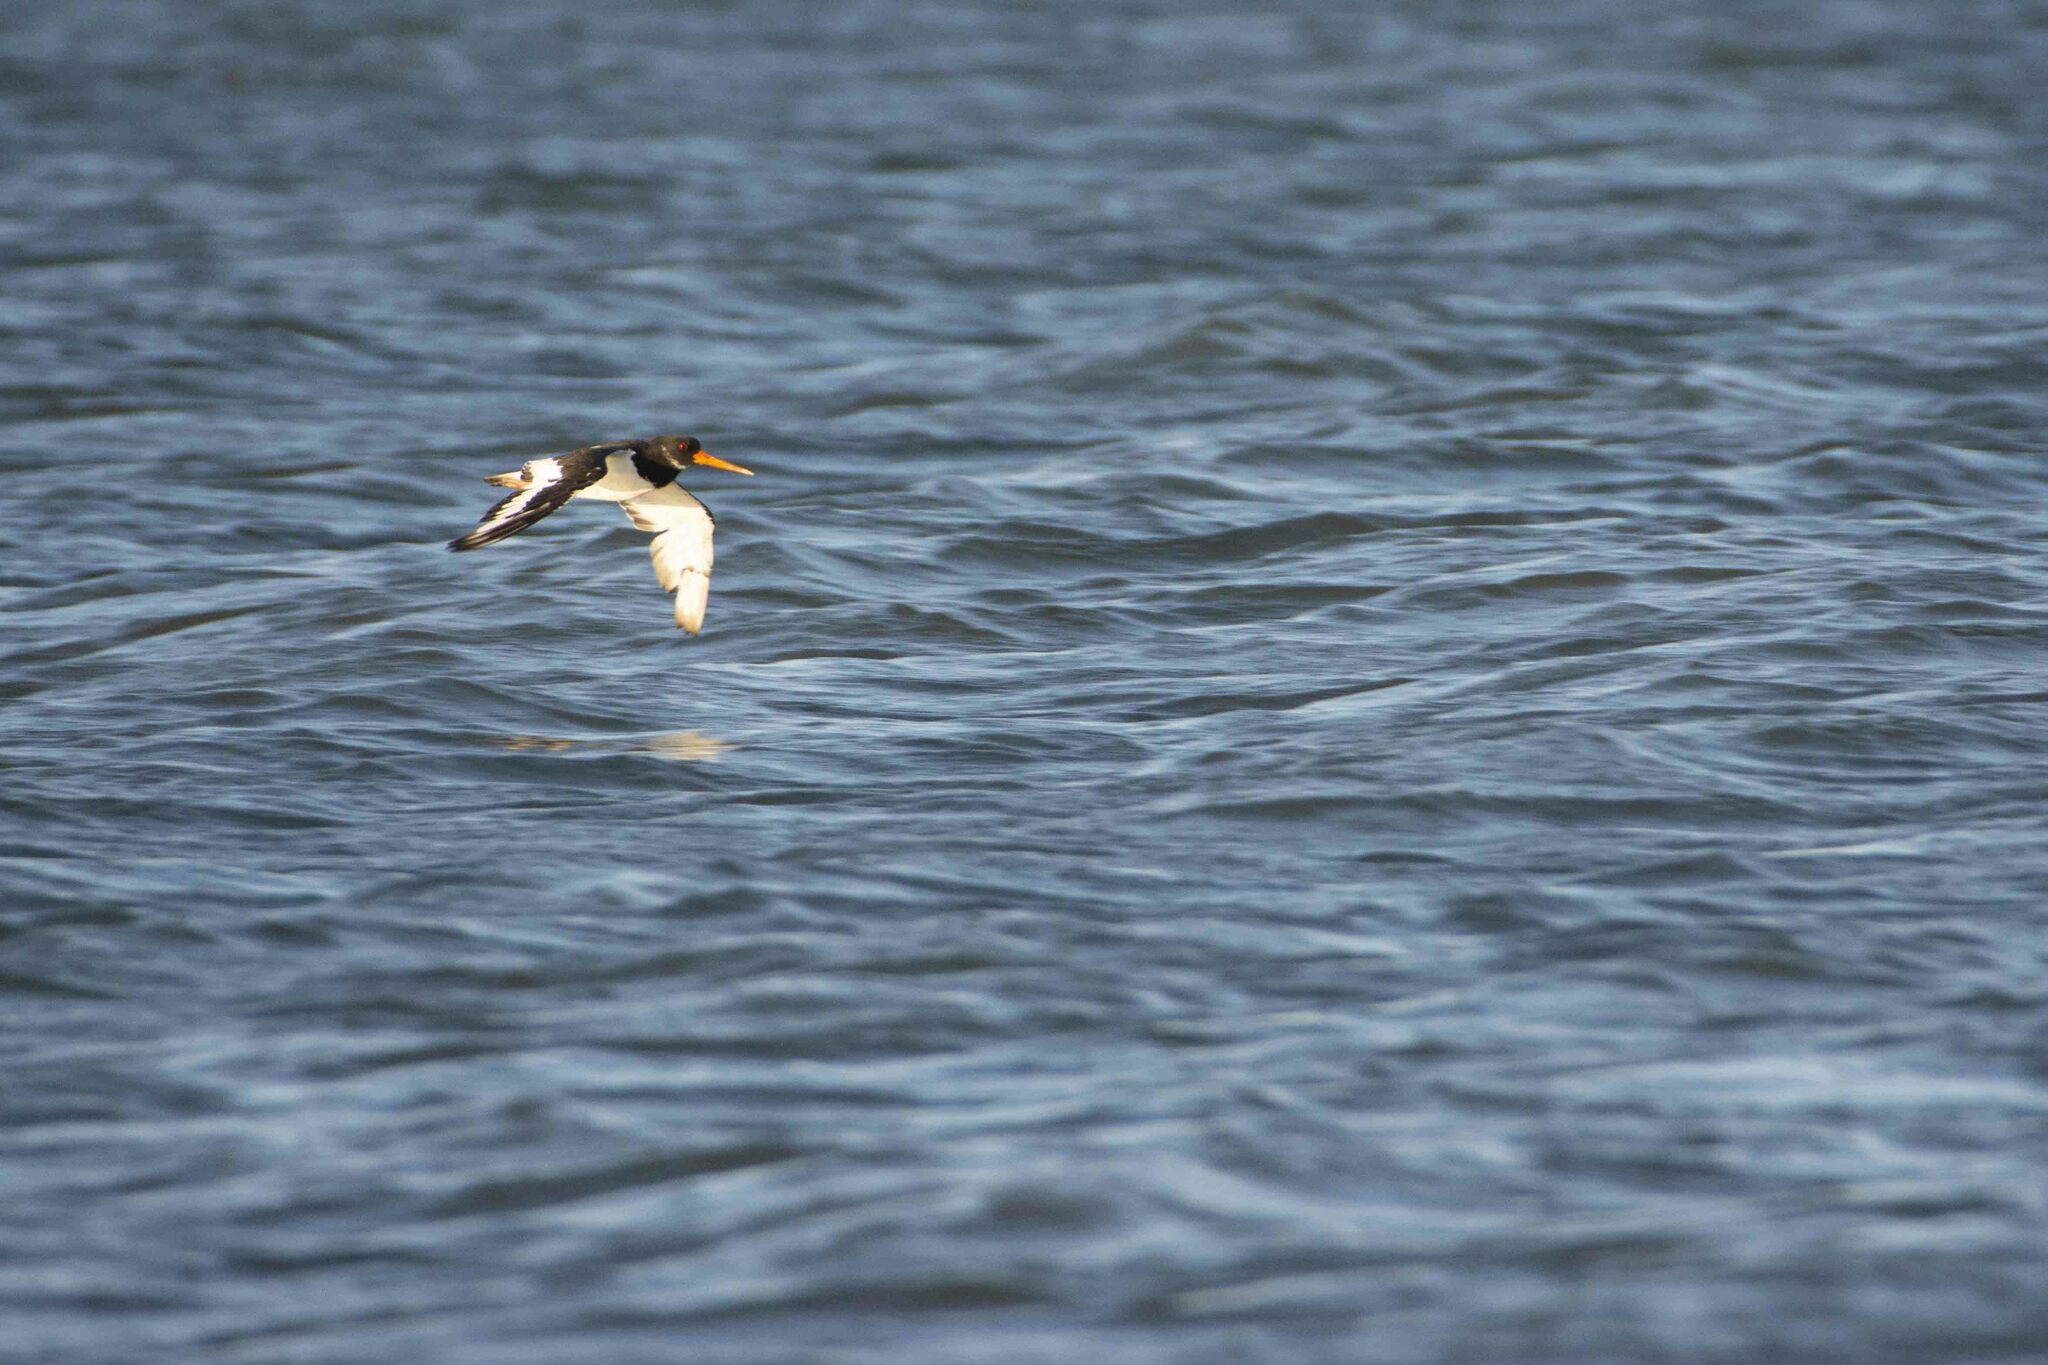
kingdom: Animalia
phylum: Chordata
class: Aves
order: Charadriiformes
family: Haematopodidae
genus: Haematopus
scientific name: Haematopus ostralegus
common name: Eurasian oystercatcher
